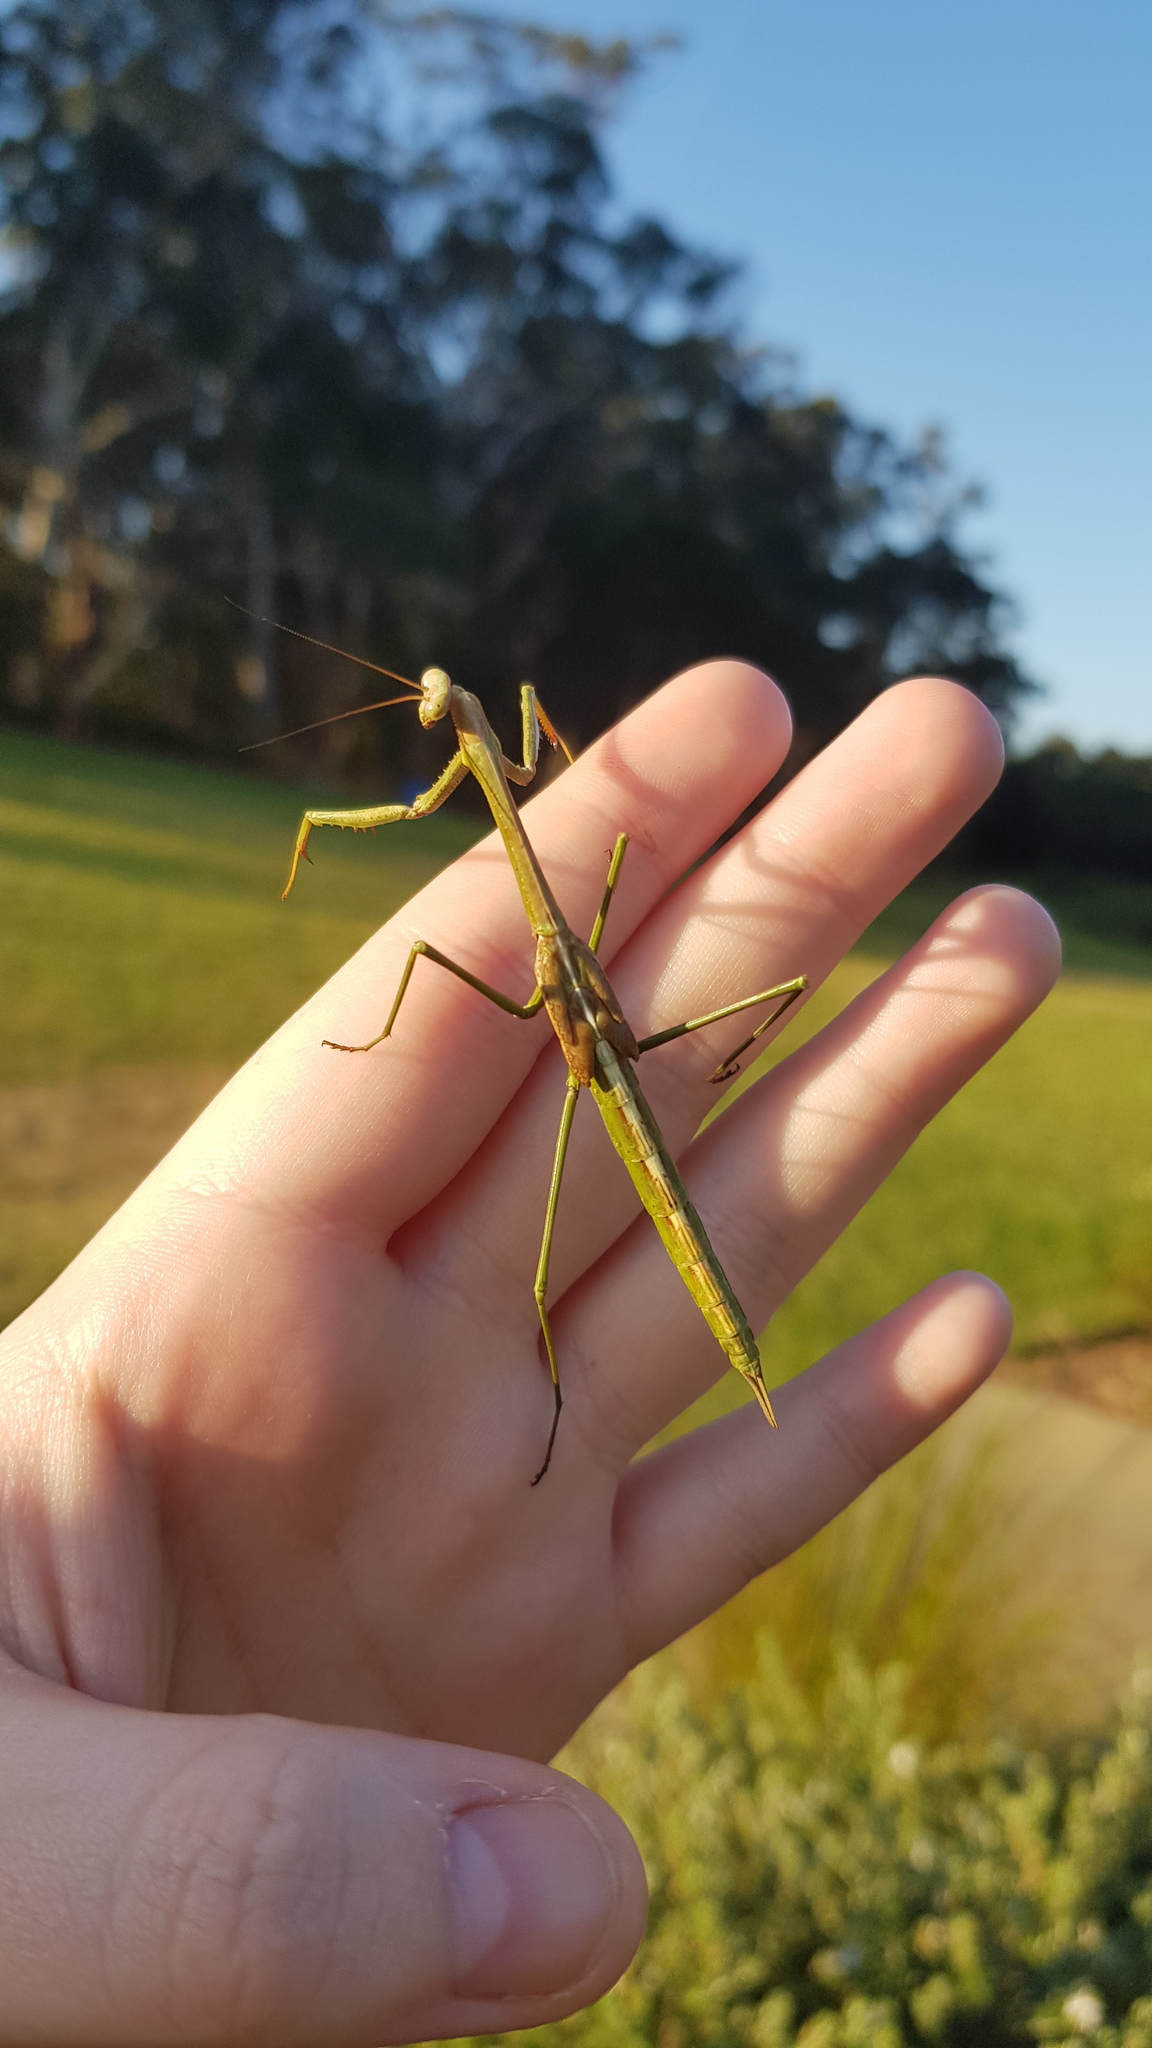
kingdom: Animalia
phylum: Arthropoda
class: Insecta
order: Mantodea
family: Mantidae
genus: Archimantis
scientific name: Archimantis latistyla
